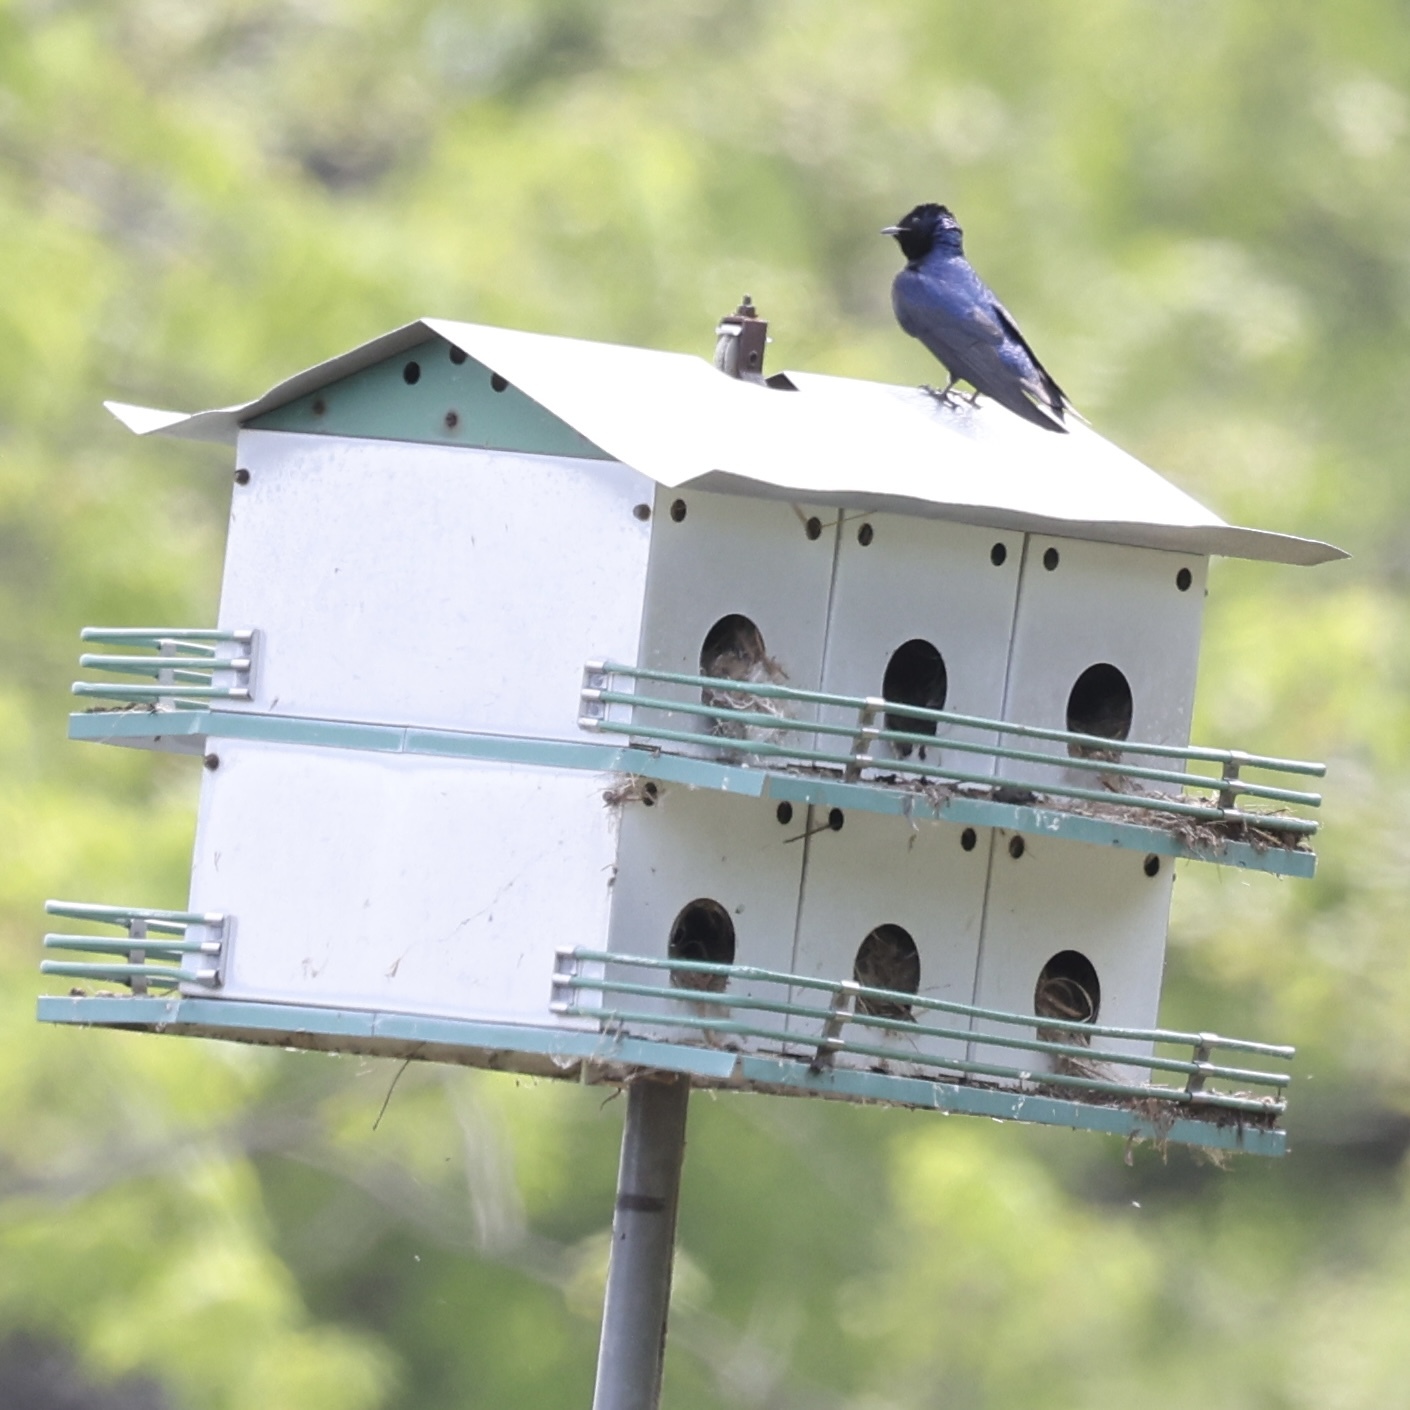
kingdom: Animalia
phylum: Chordata
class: Aves
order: Passeriformes
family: Hirundinidae
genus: Progne
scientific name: Progne subis
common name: Purple martin
